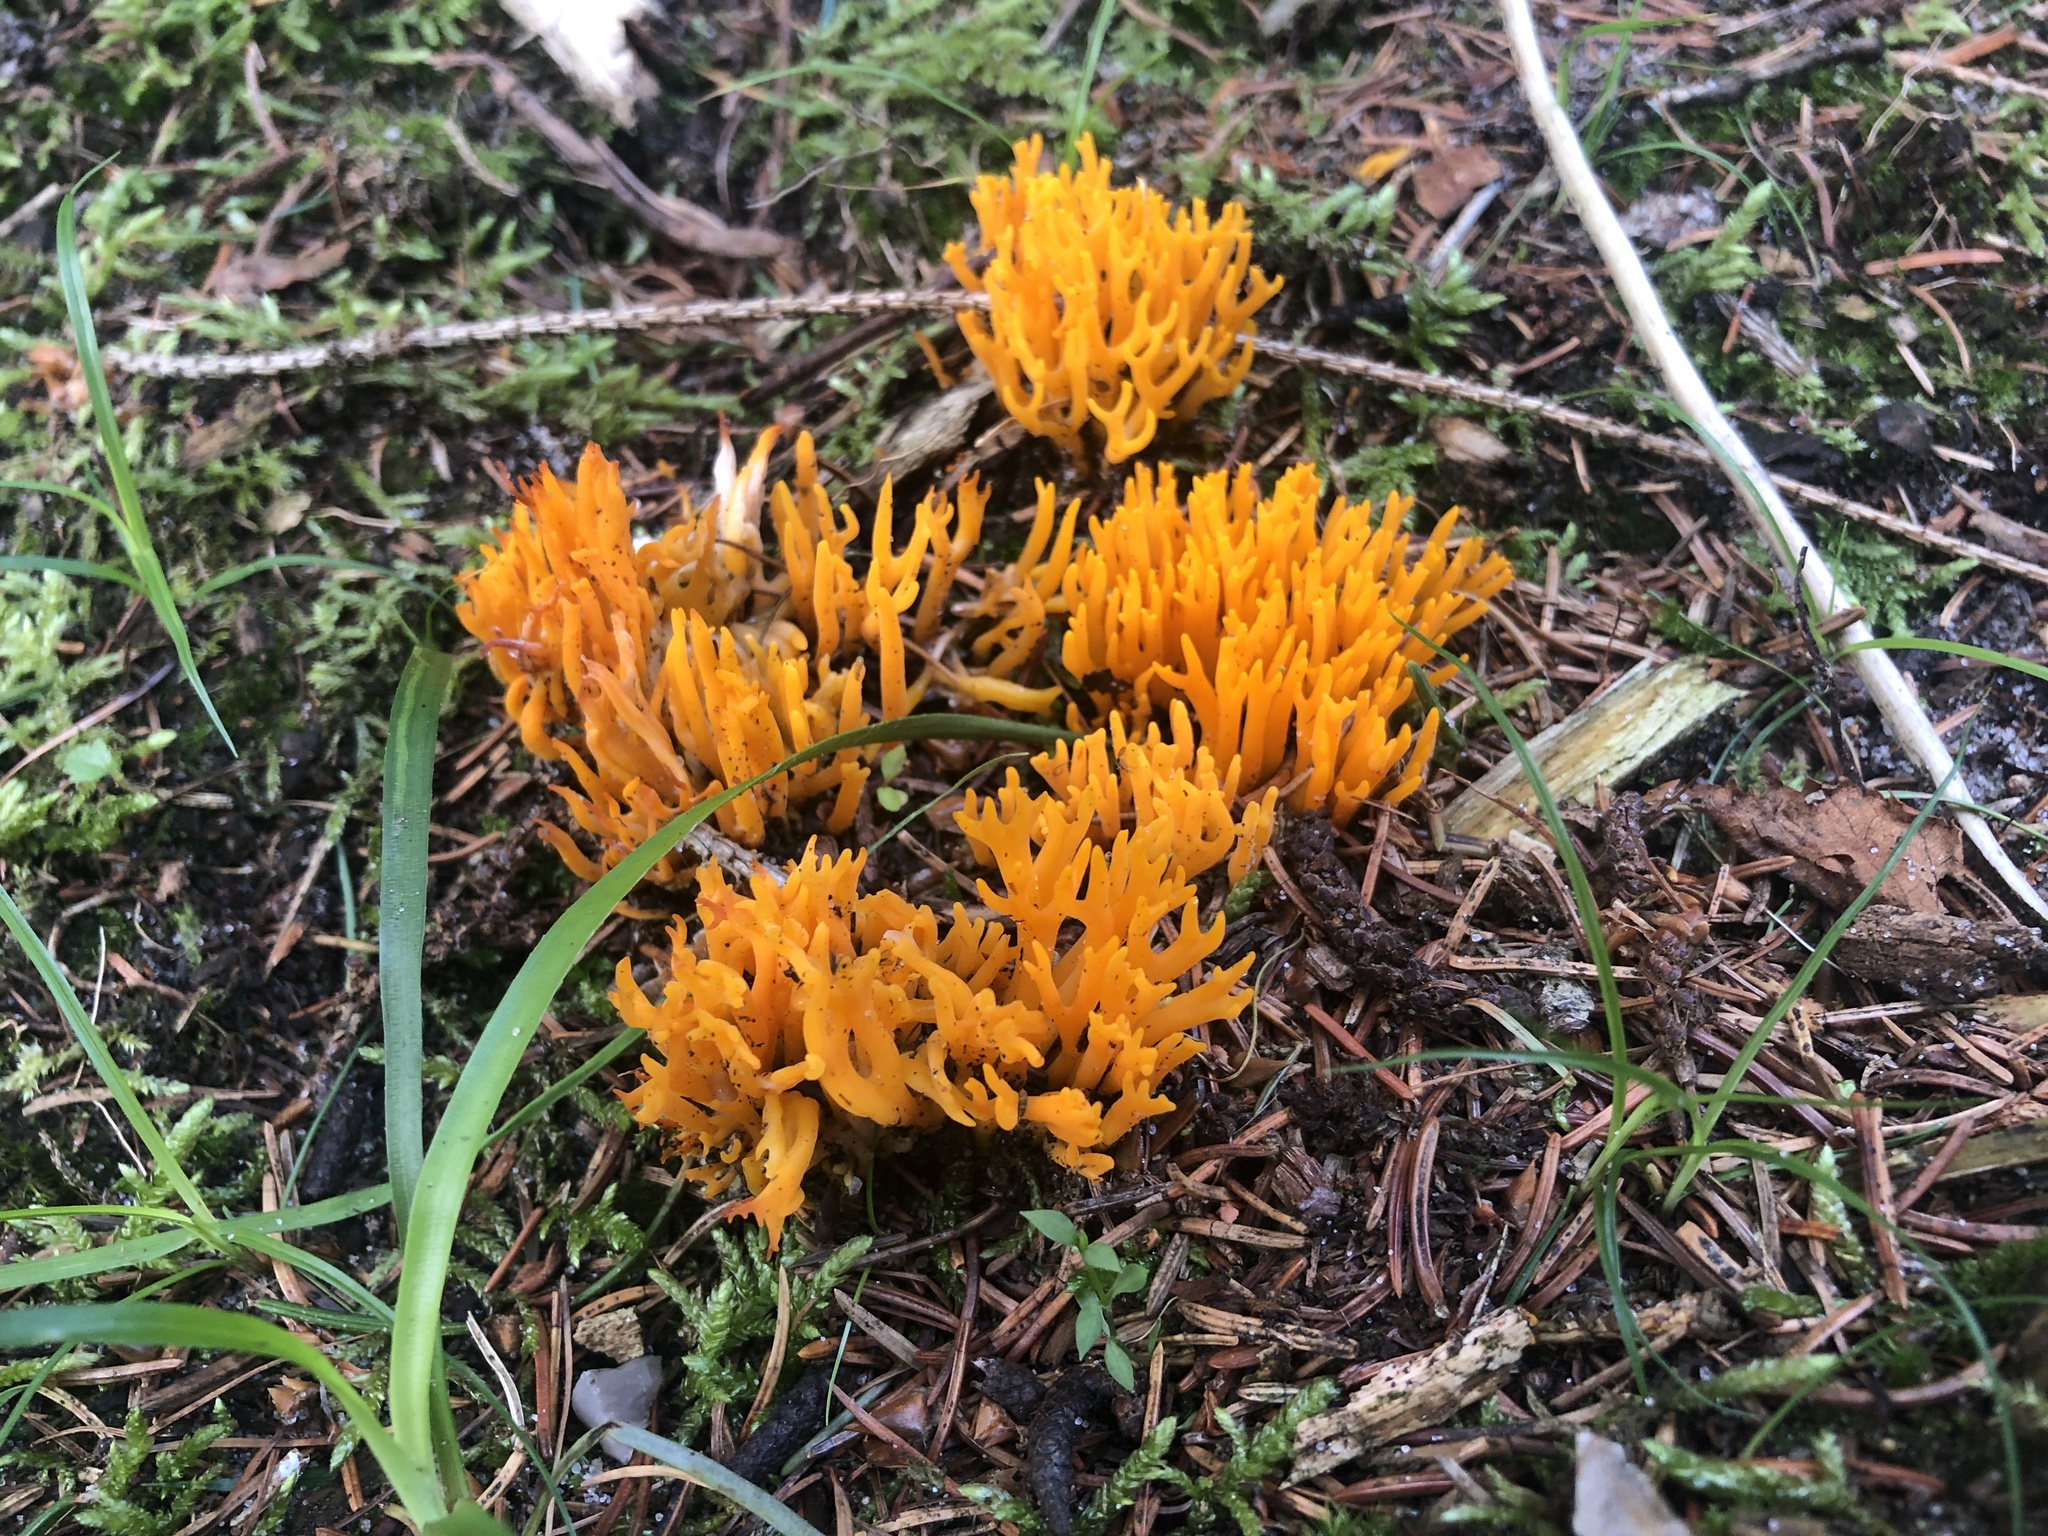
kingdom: Fungi
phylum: Basidiomycota
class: Dacrymycetes
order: Dacrymycetales
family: Dacrymycetaceae
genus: Calocera
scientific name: Calocera viscosa
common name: Yellow stagshorn
